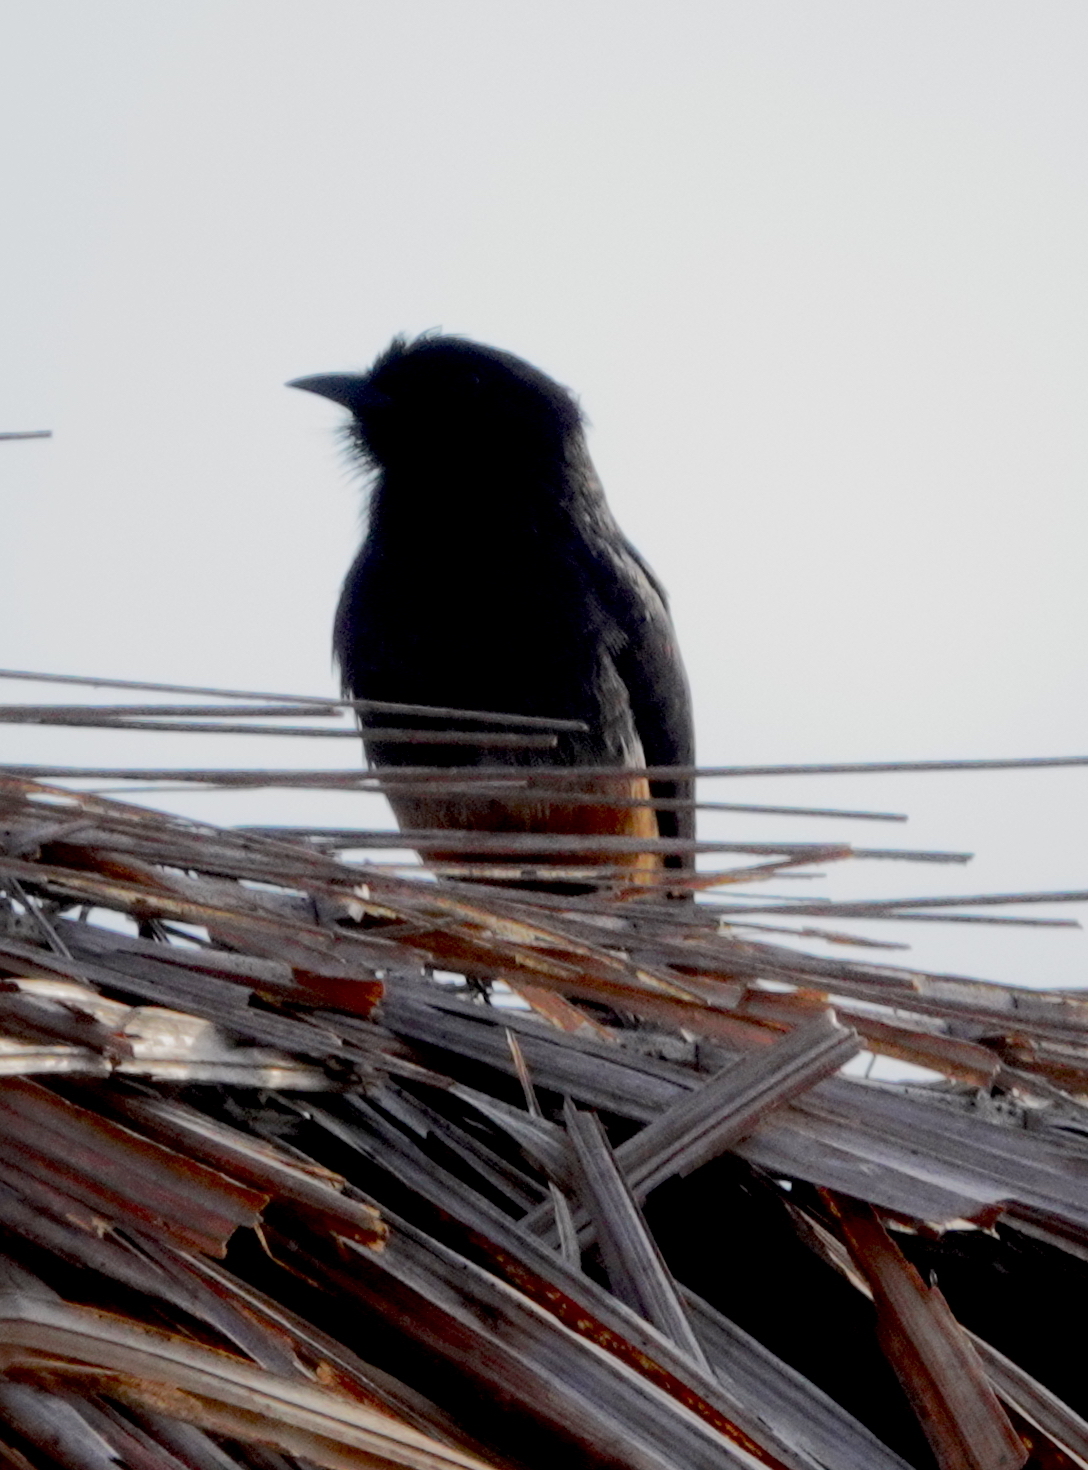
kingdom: Animalia
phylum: Chordata
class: Aves
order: Piciformes
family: Bucconidae
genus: Chelidoptera
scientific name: Chelidoptera tenebrosa
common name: Swallow-winged puffbird
